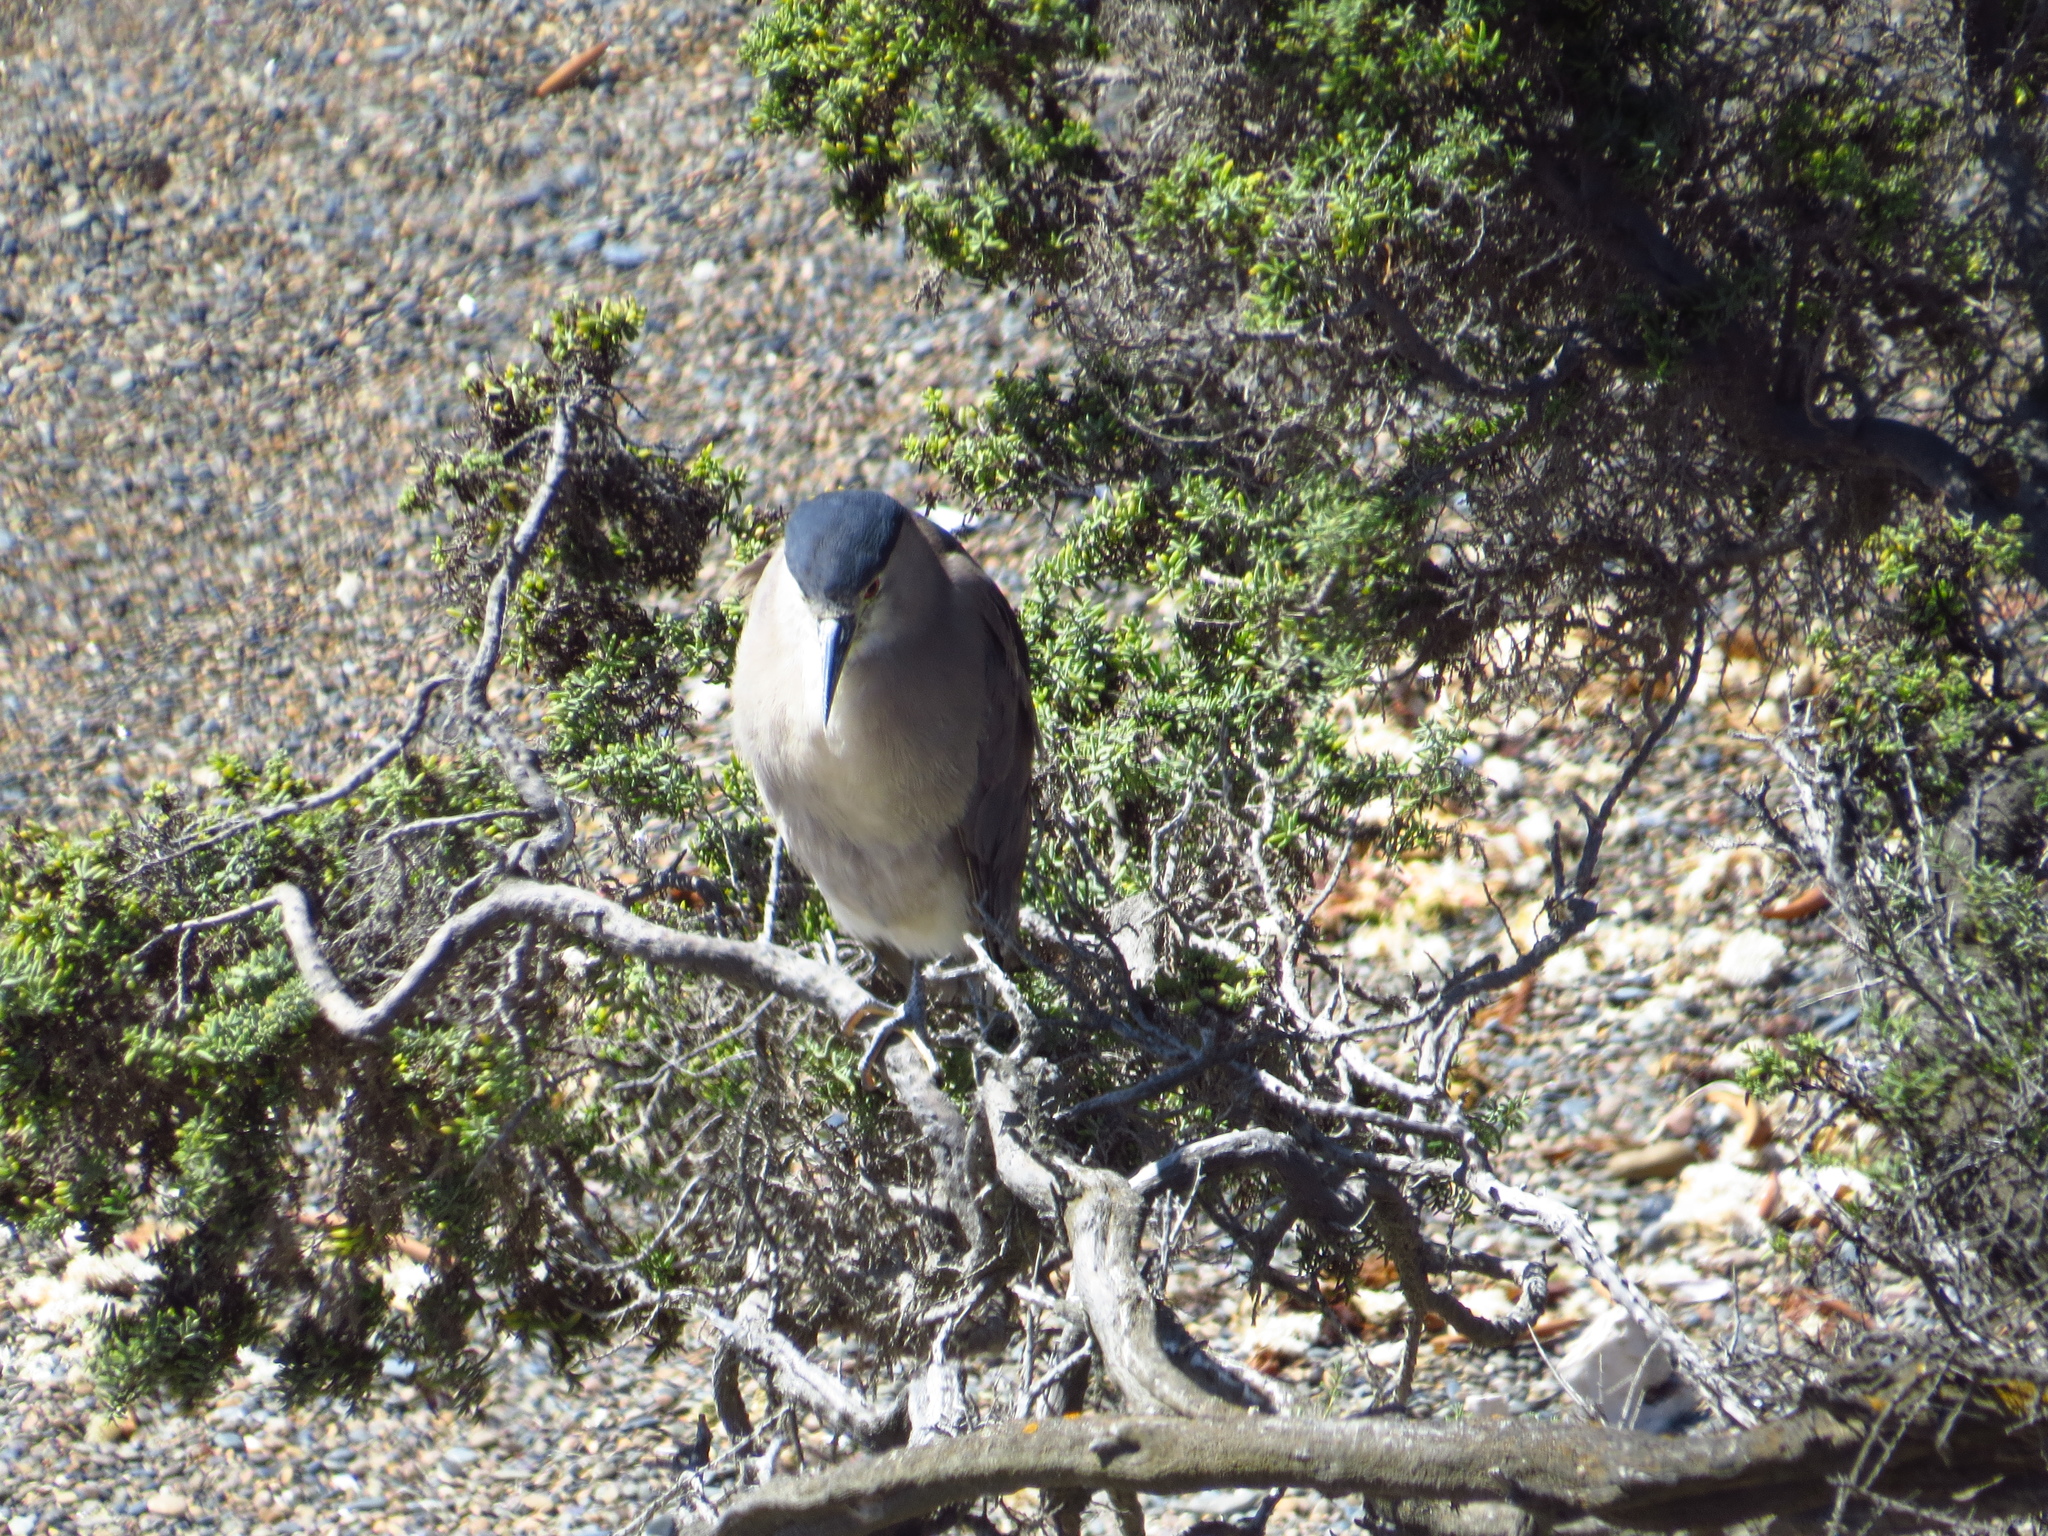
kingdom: Animalia
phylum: Chordata
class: Aves
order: Pelecaniformes
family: Ardeidae
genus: Nycticorax
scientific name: Nycticorax nycticorax
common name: Black-crowned night heron
